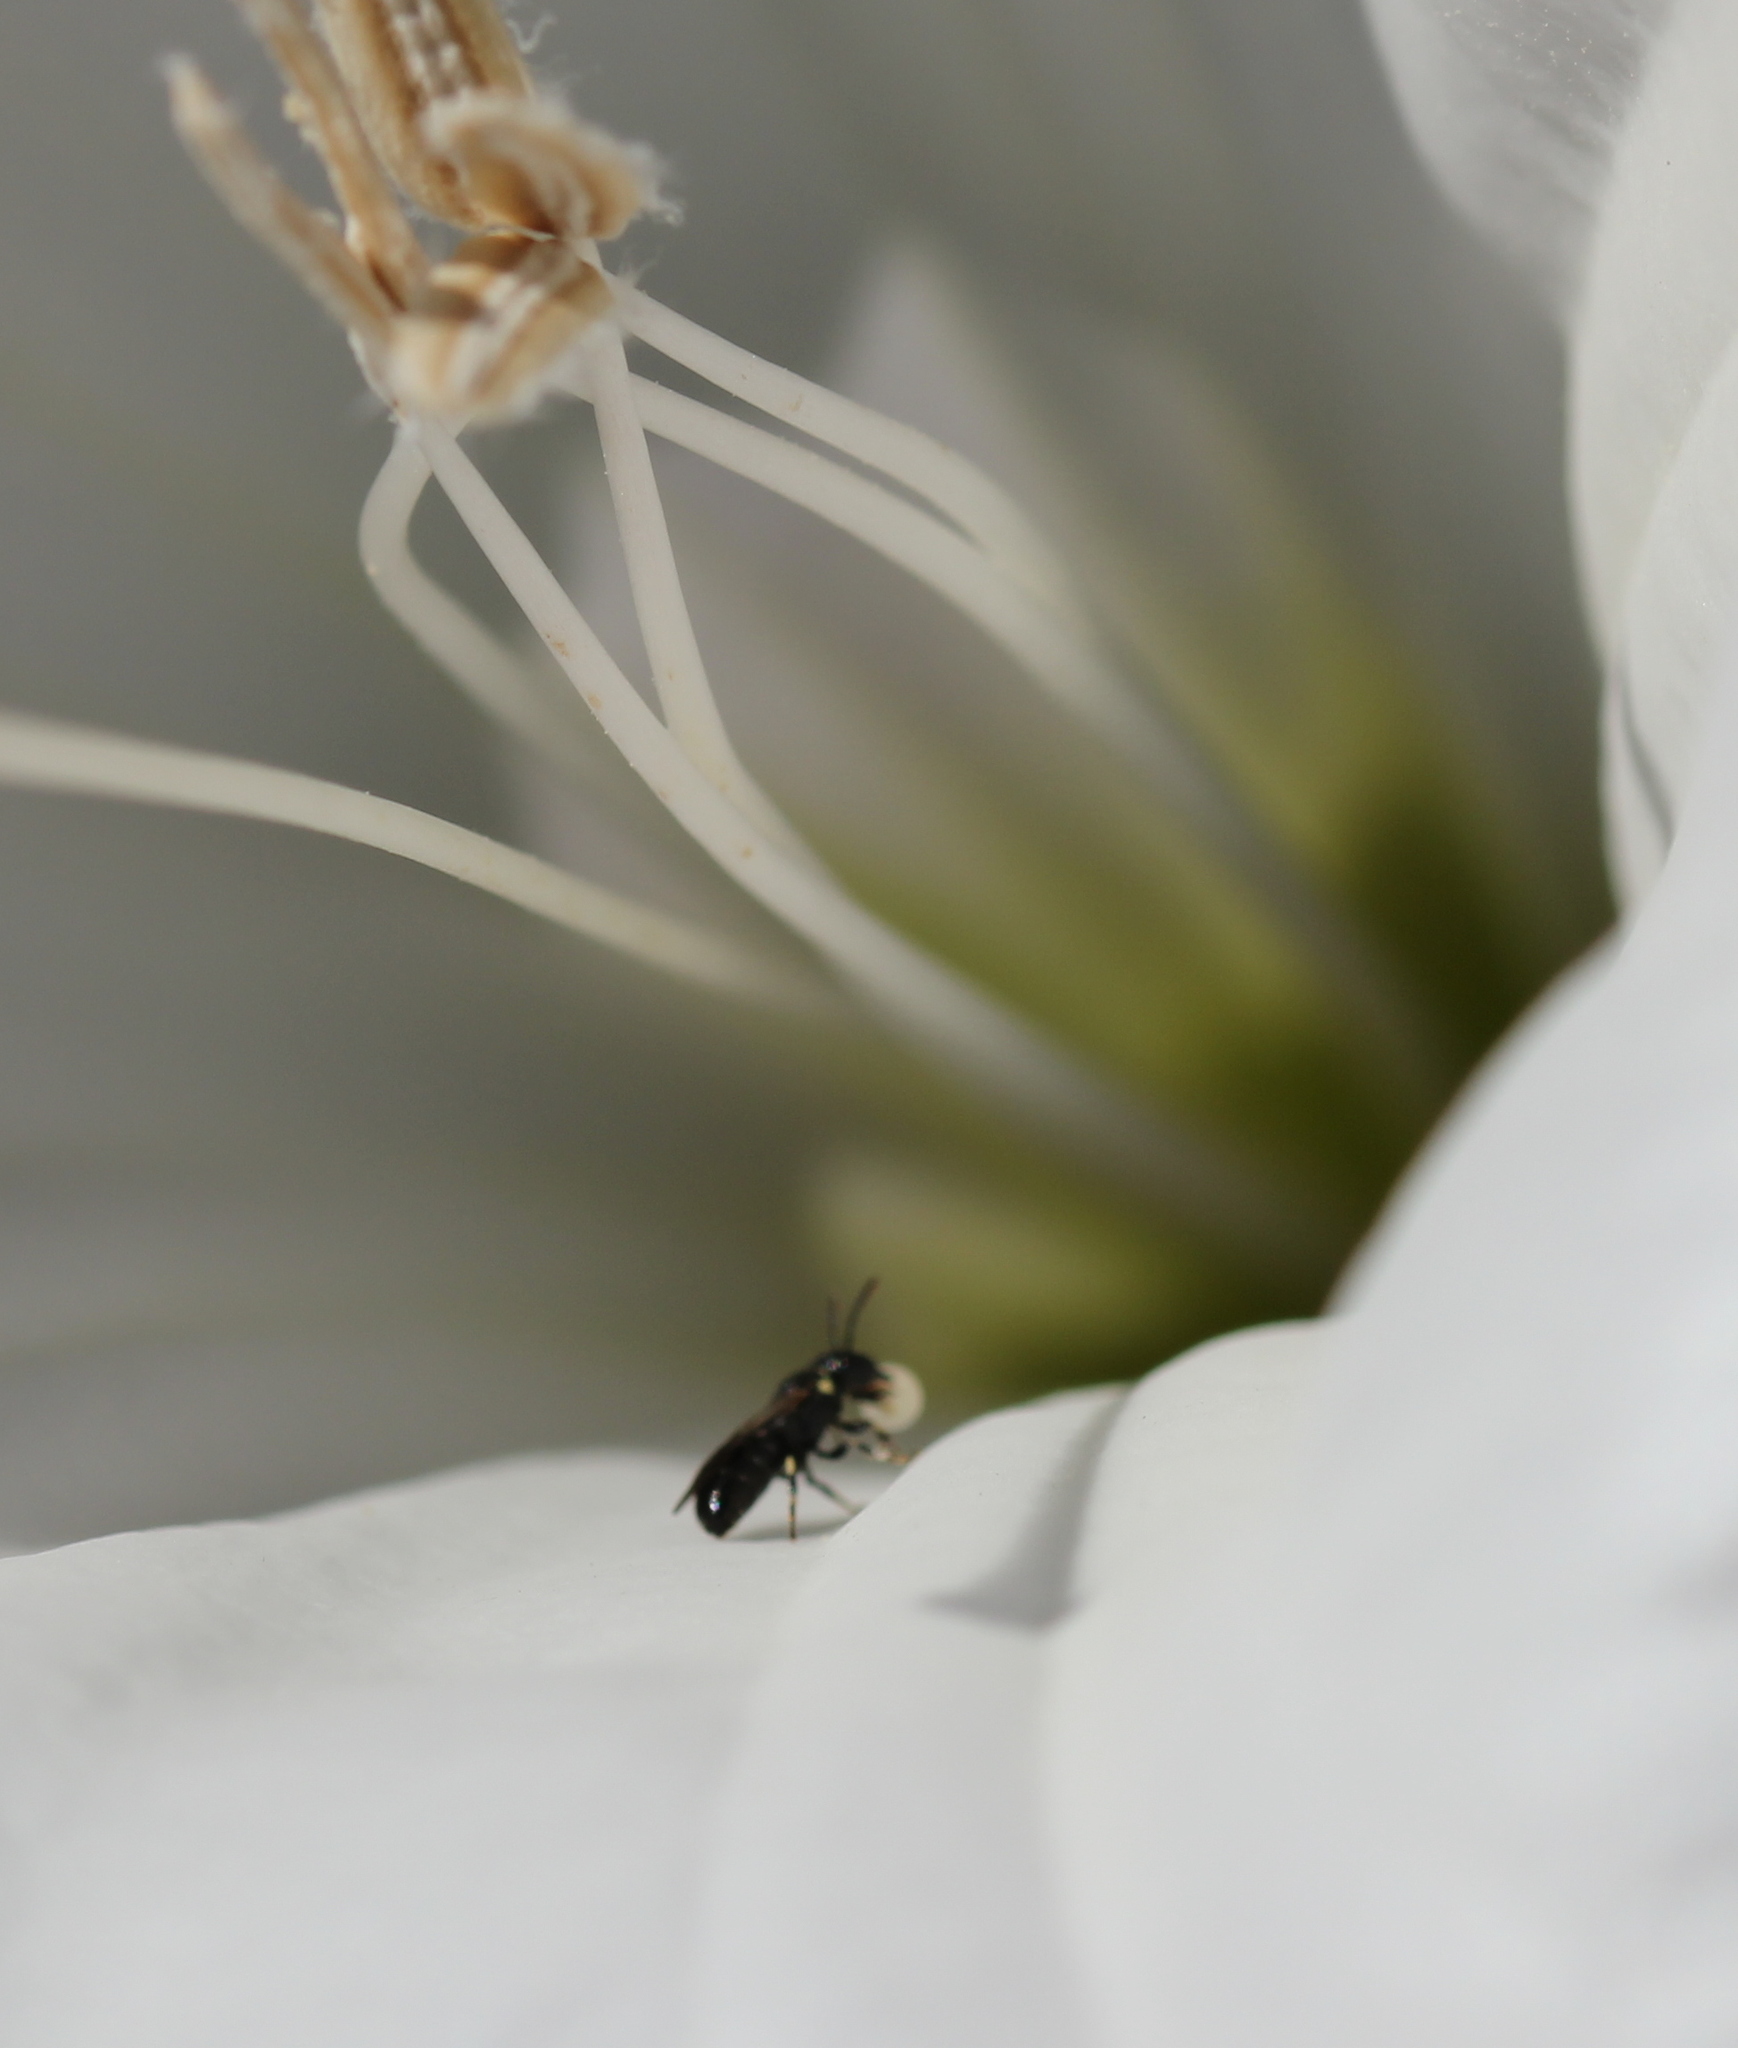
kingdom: Animalia
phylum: Arthropoda
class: Insecta
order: Hymenoptera
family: Colletidae
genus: Hylaeus
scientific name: Hylaeus
